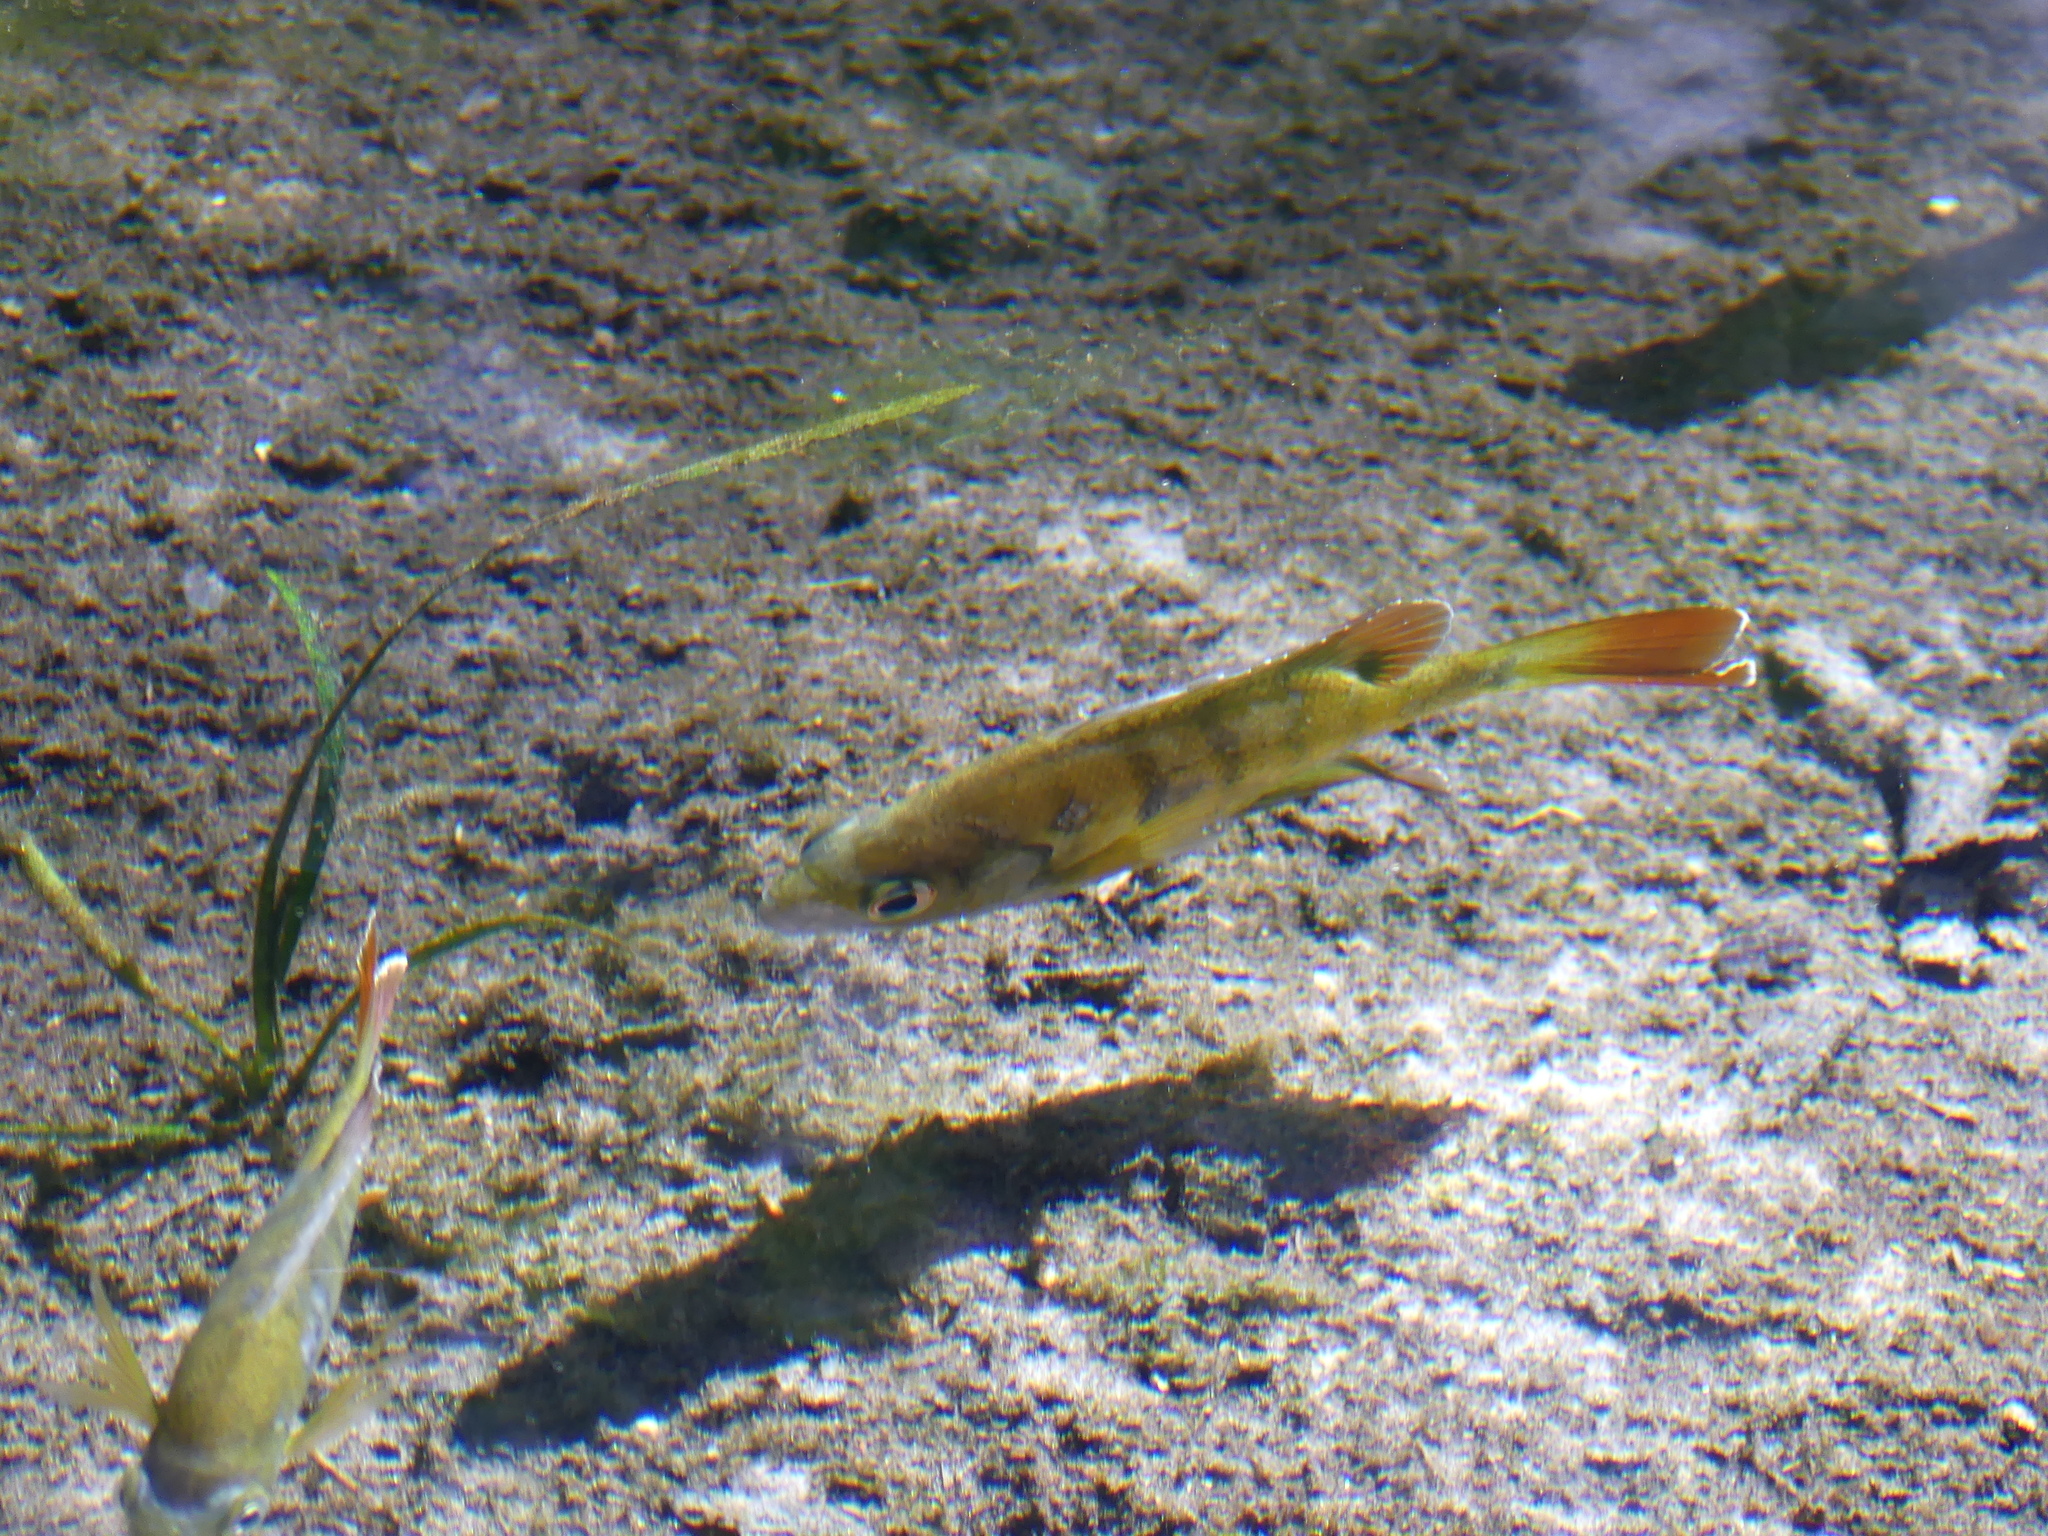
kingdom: Animalia
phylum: Chordata
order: Perciformes
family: Centrarchidae
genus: Lepomis
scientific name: Lepomis macrochirus
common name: Bluegill
